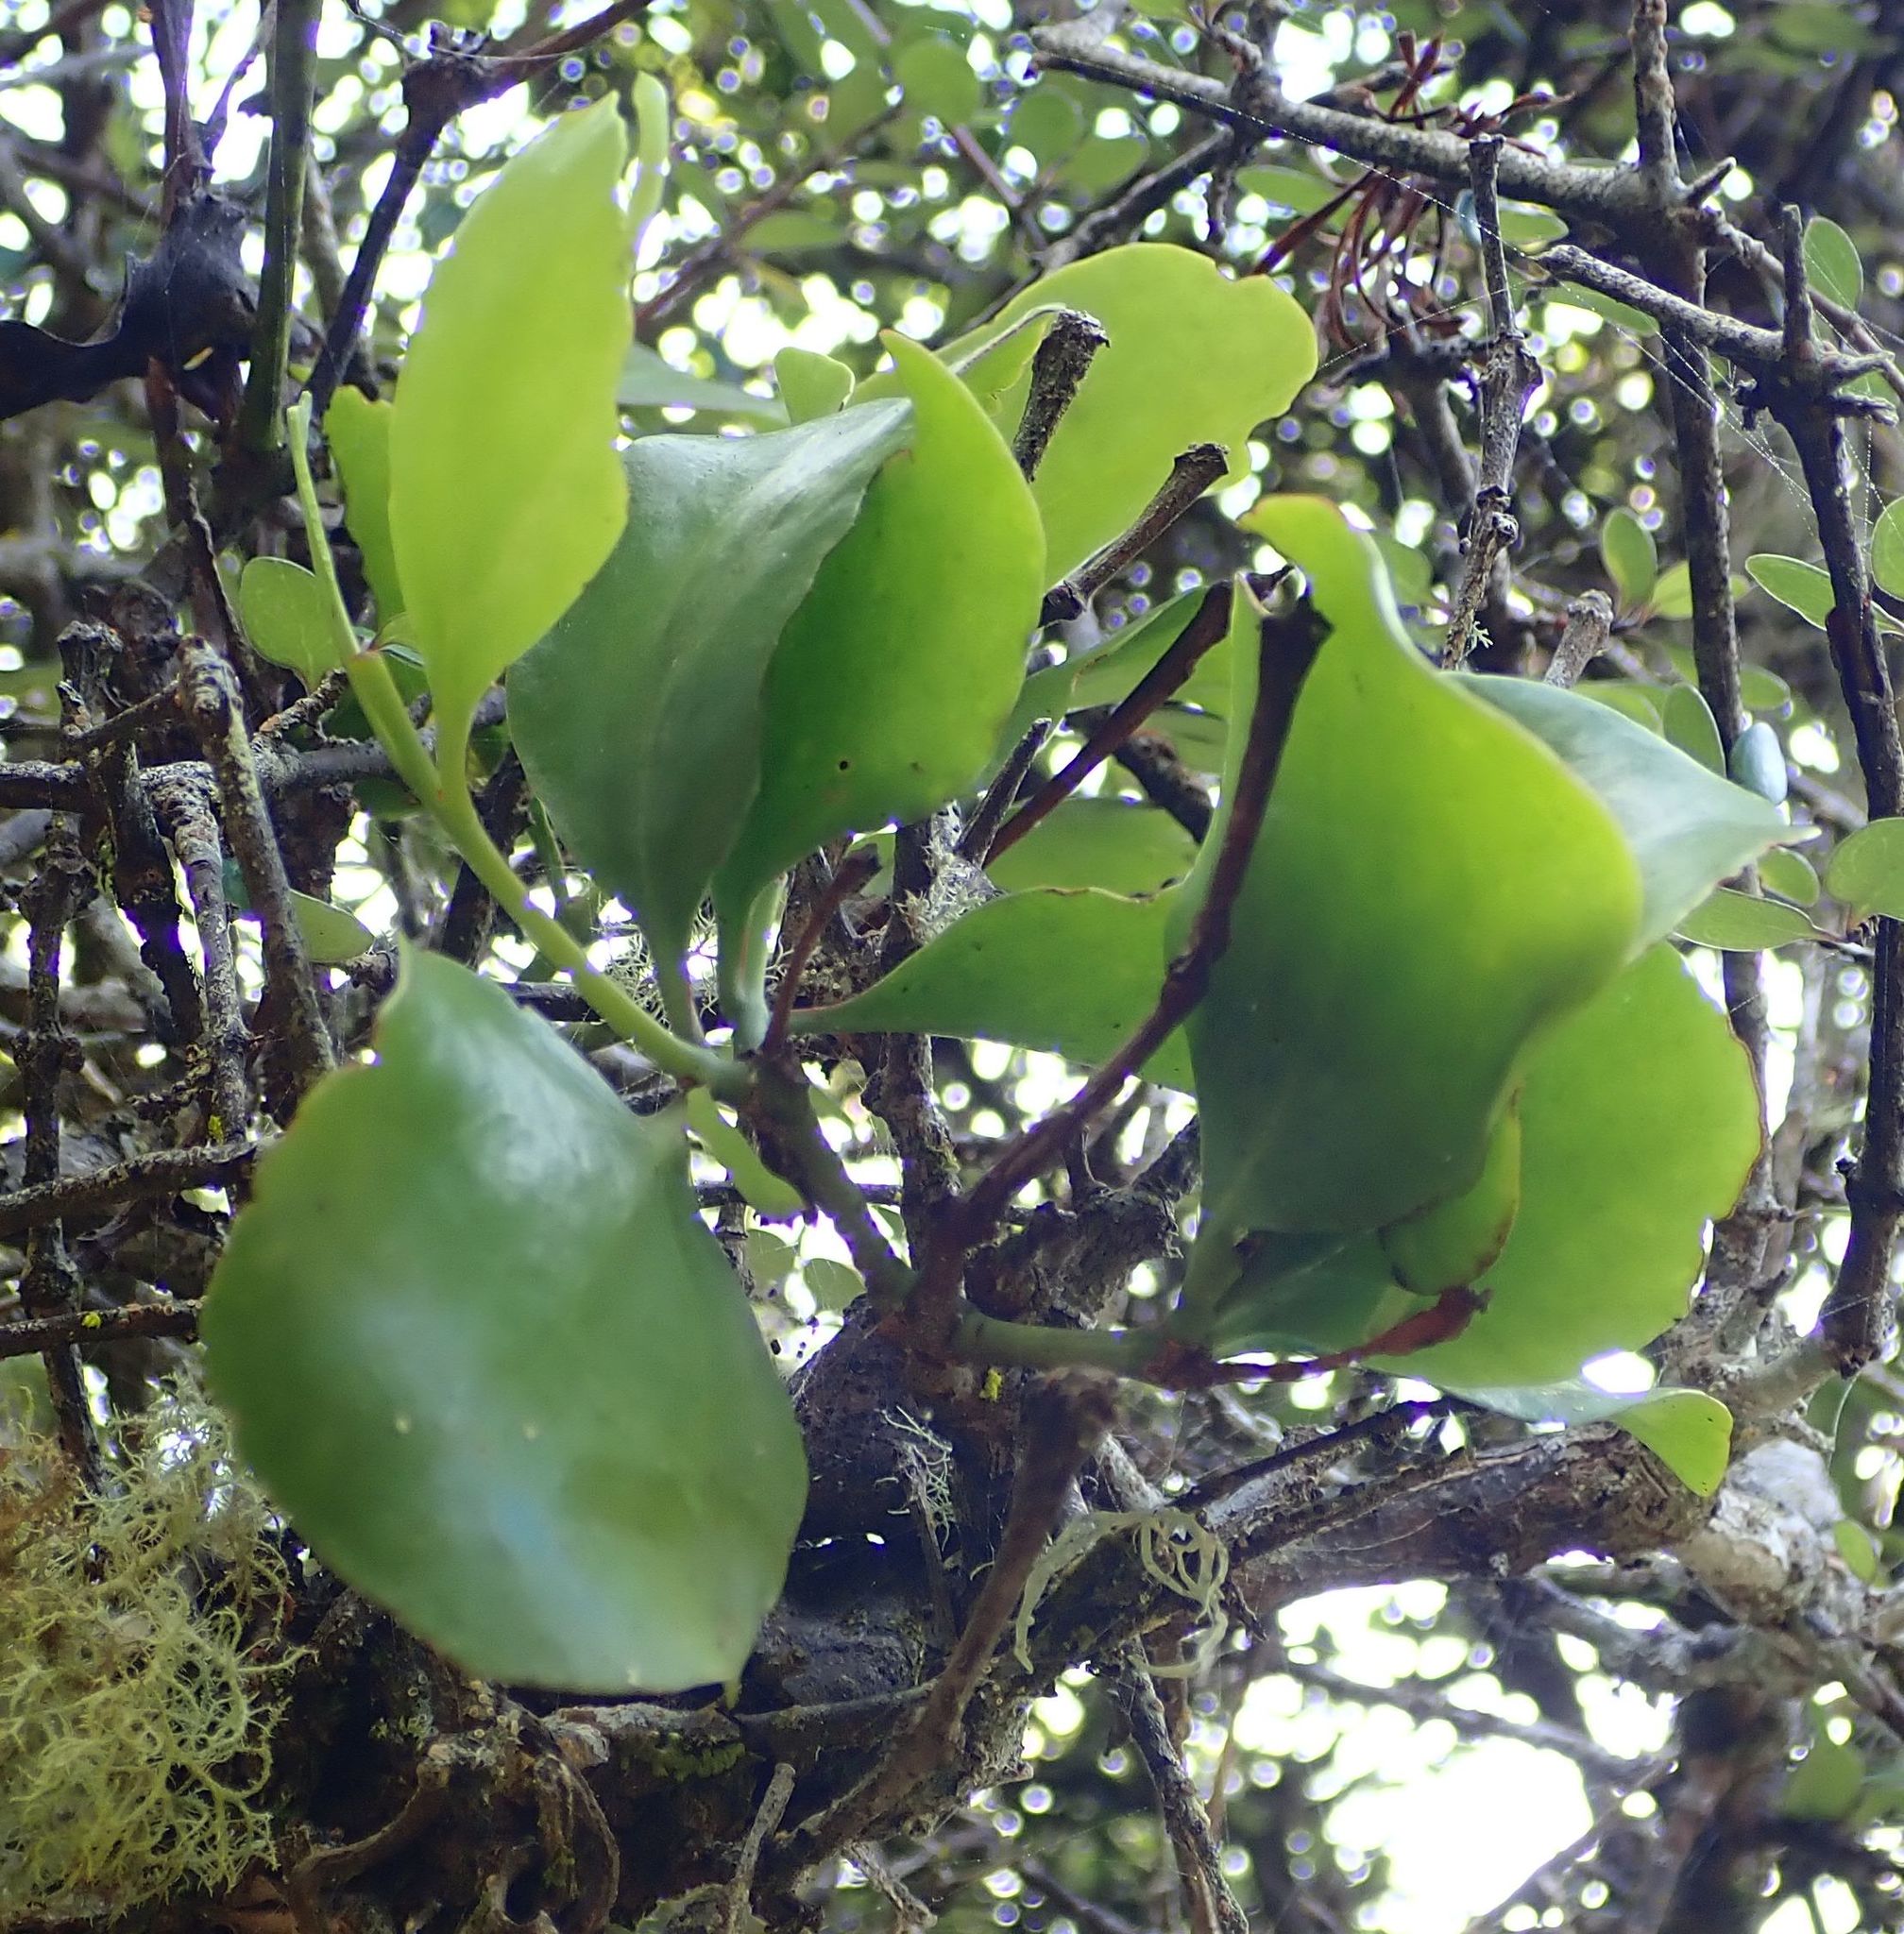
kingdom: Plantae
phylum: Tracheophyta
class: Magnoliopsida
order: Santalales
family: Loranthaceae
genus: Ileostylus
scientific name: Ileostylus micranthus
